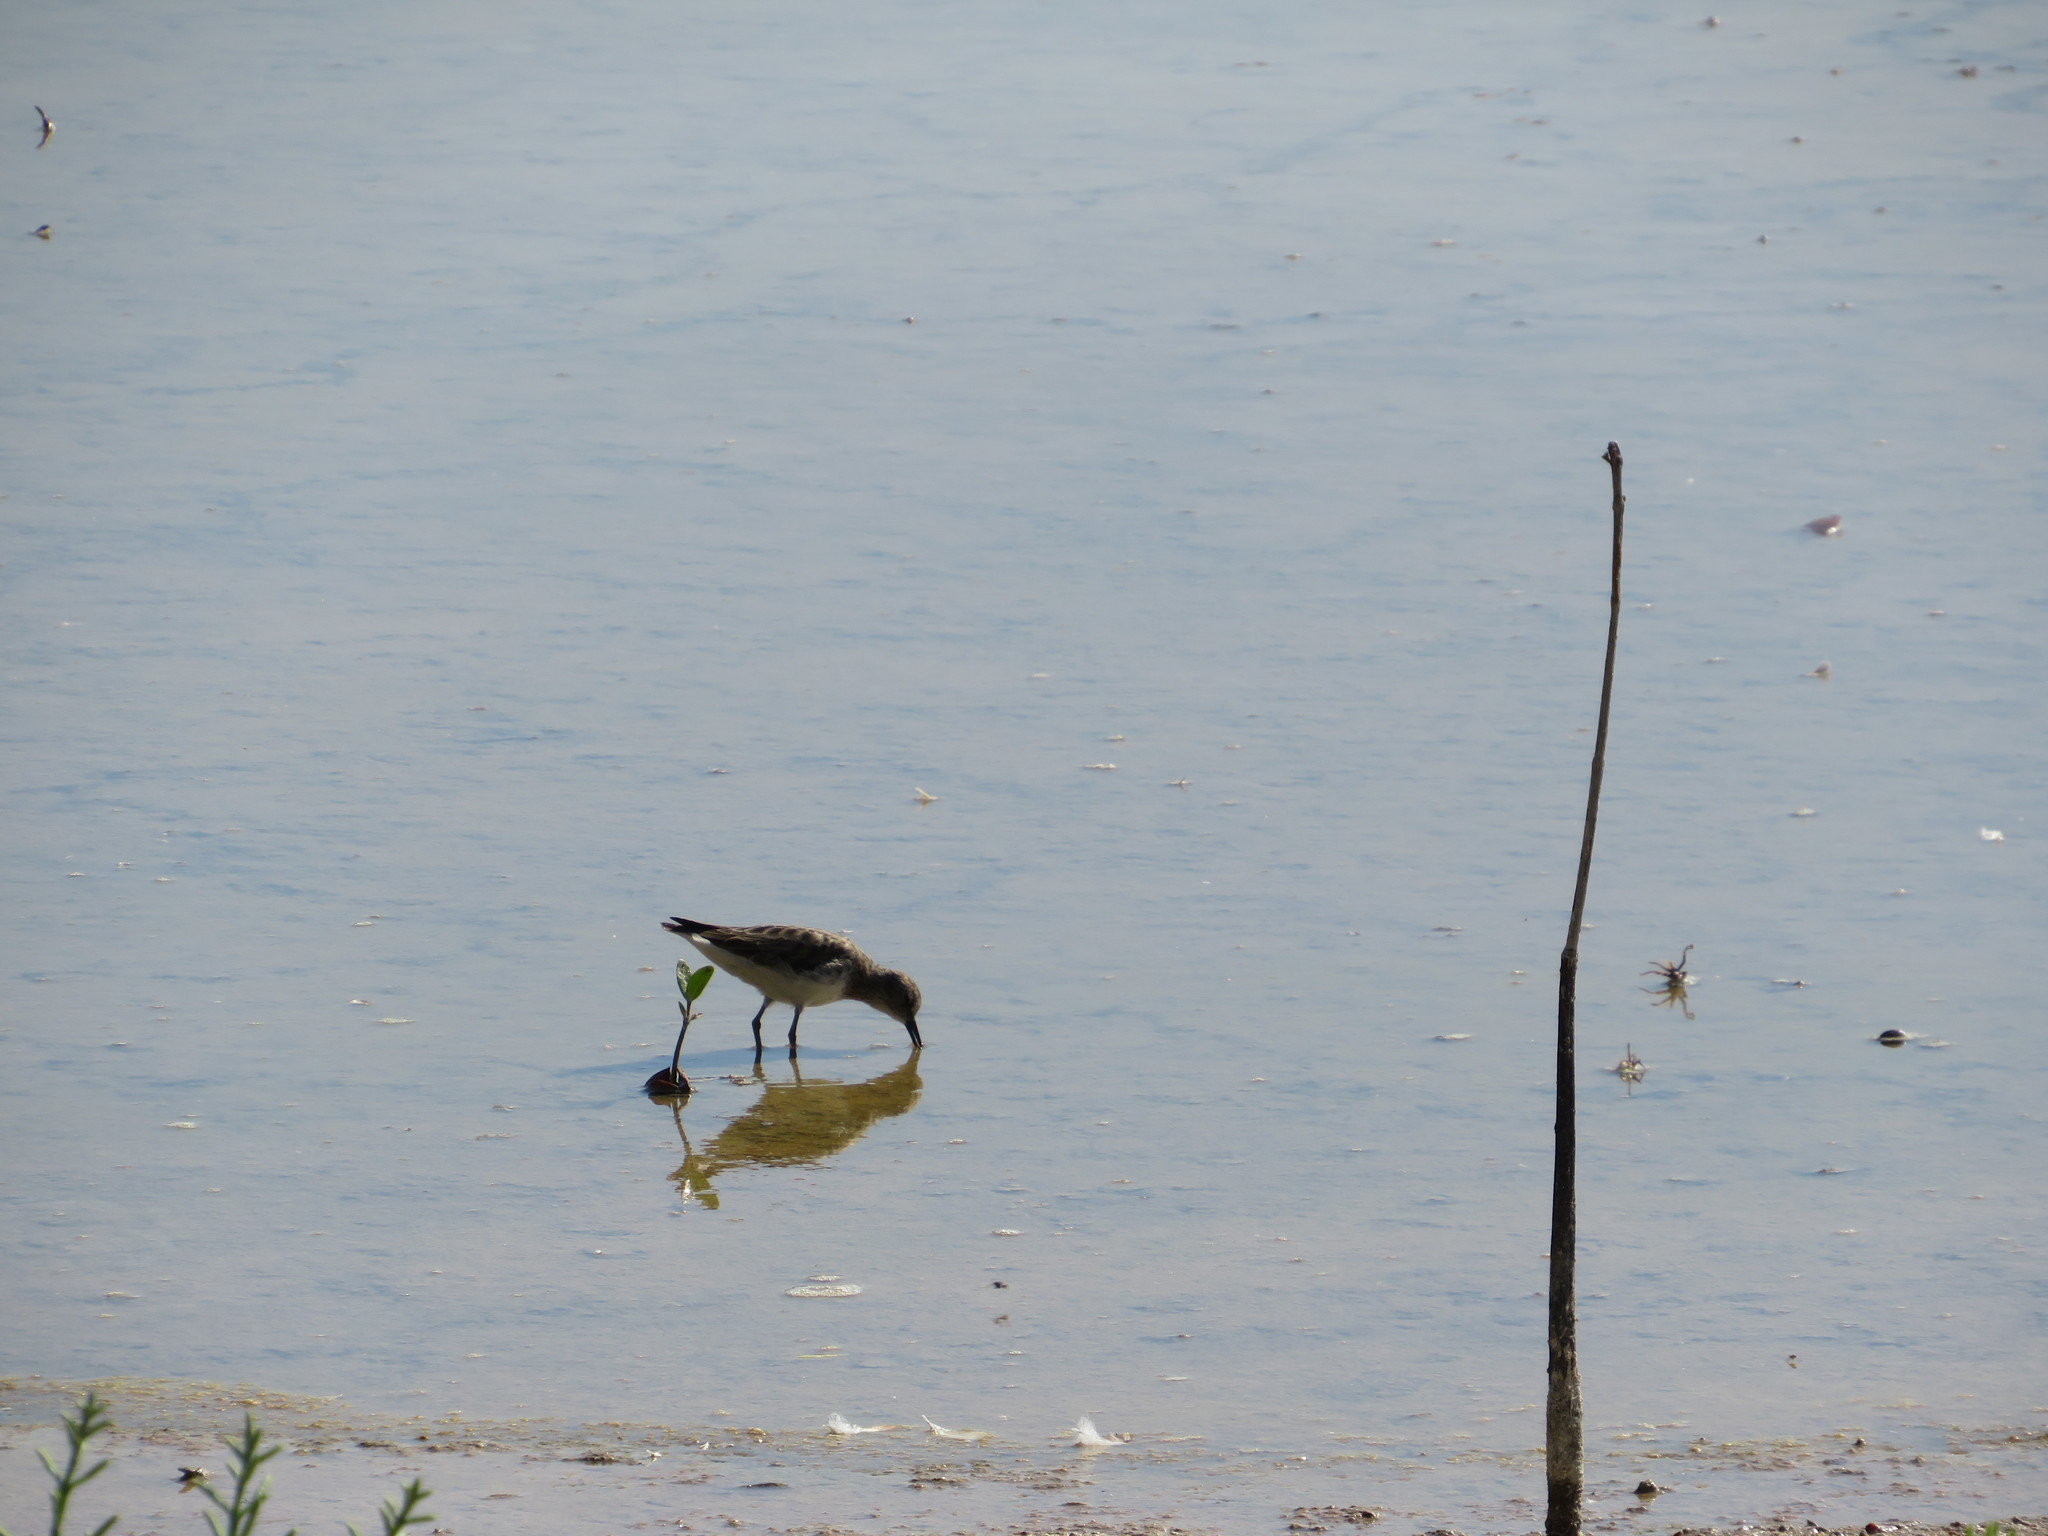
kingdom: Animalia
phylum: Chordata
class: Aves
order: Charadriiformes
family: Scolopacidae
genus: Calidris
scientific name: Calidris bairdii
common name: Baird's sandpiper
